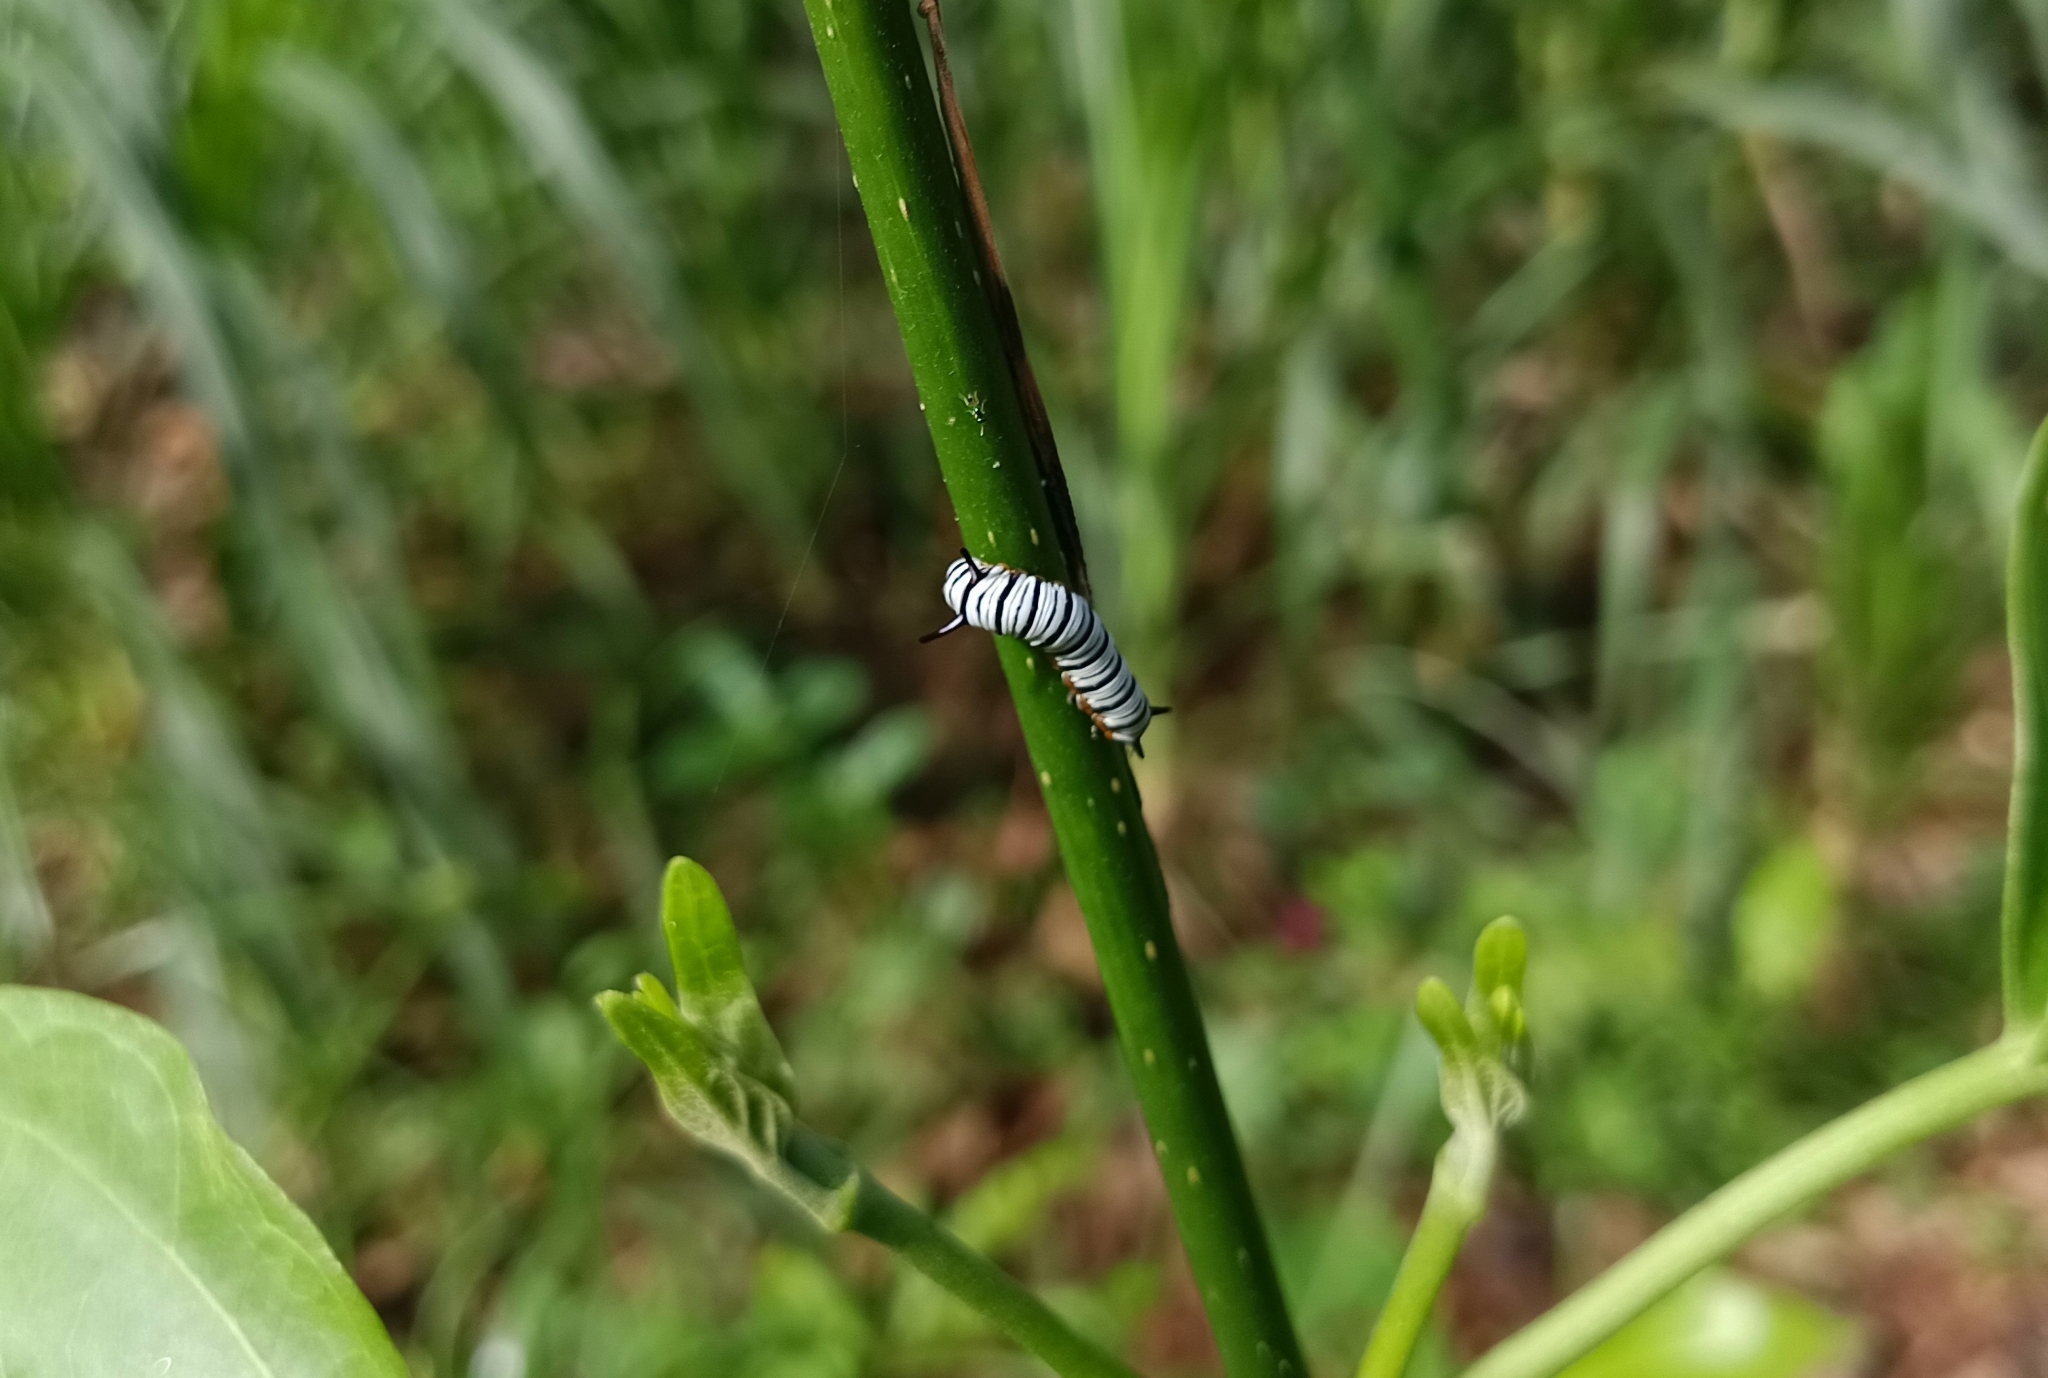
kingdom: Animalia
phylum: Arthropoda
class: Insecta
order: Lepidoptera
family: Nymphalidae
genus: Tirumala
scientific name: Tirumala limniace
